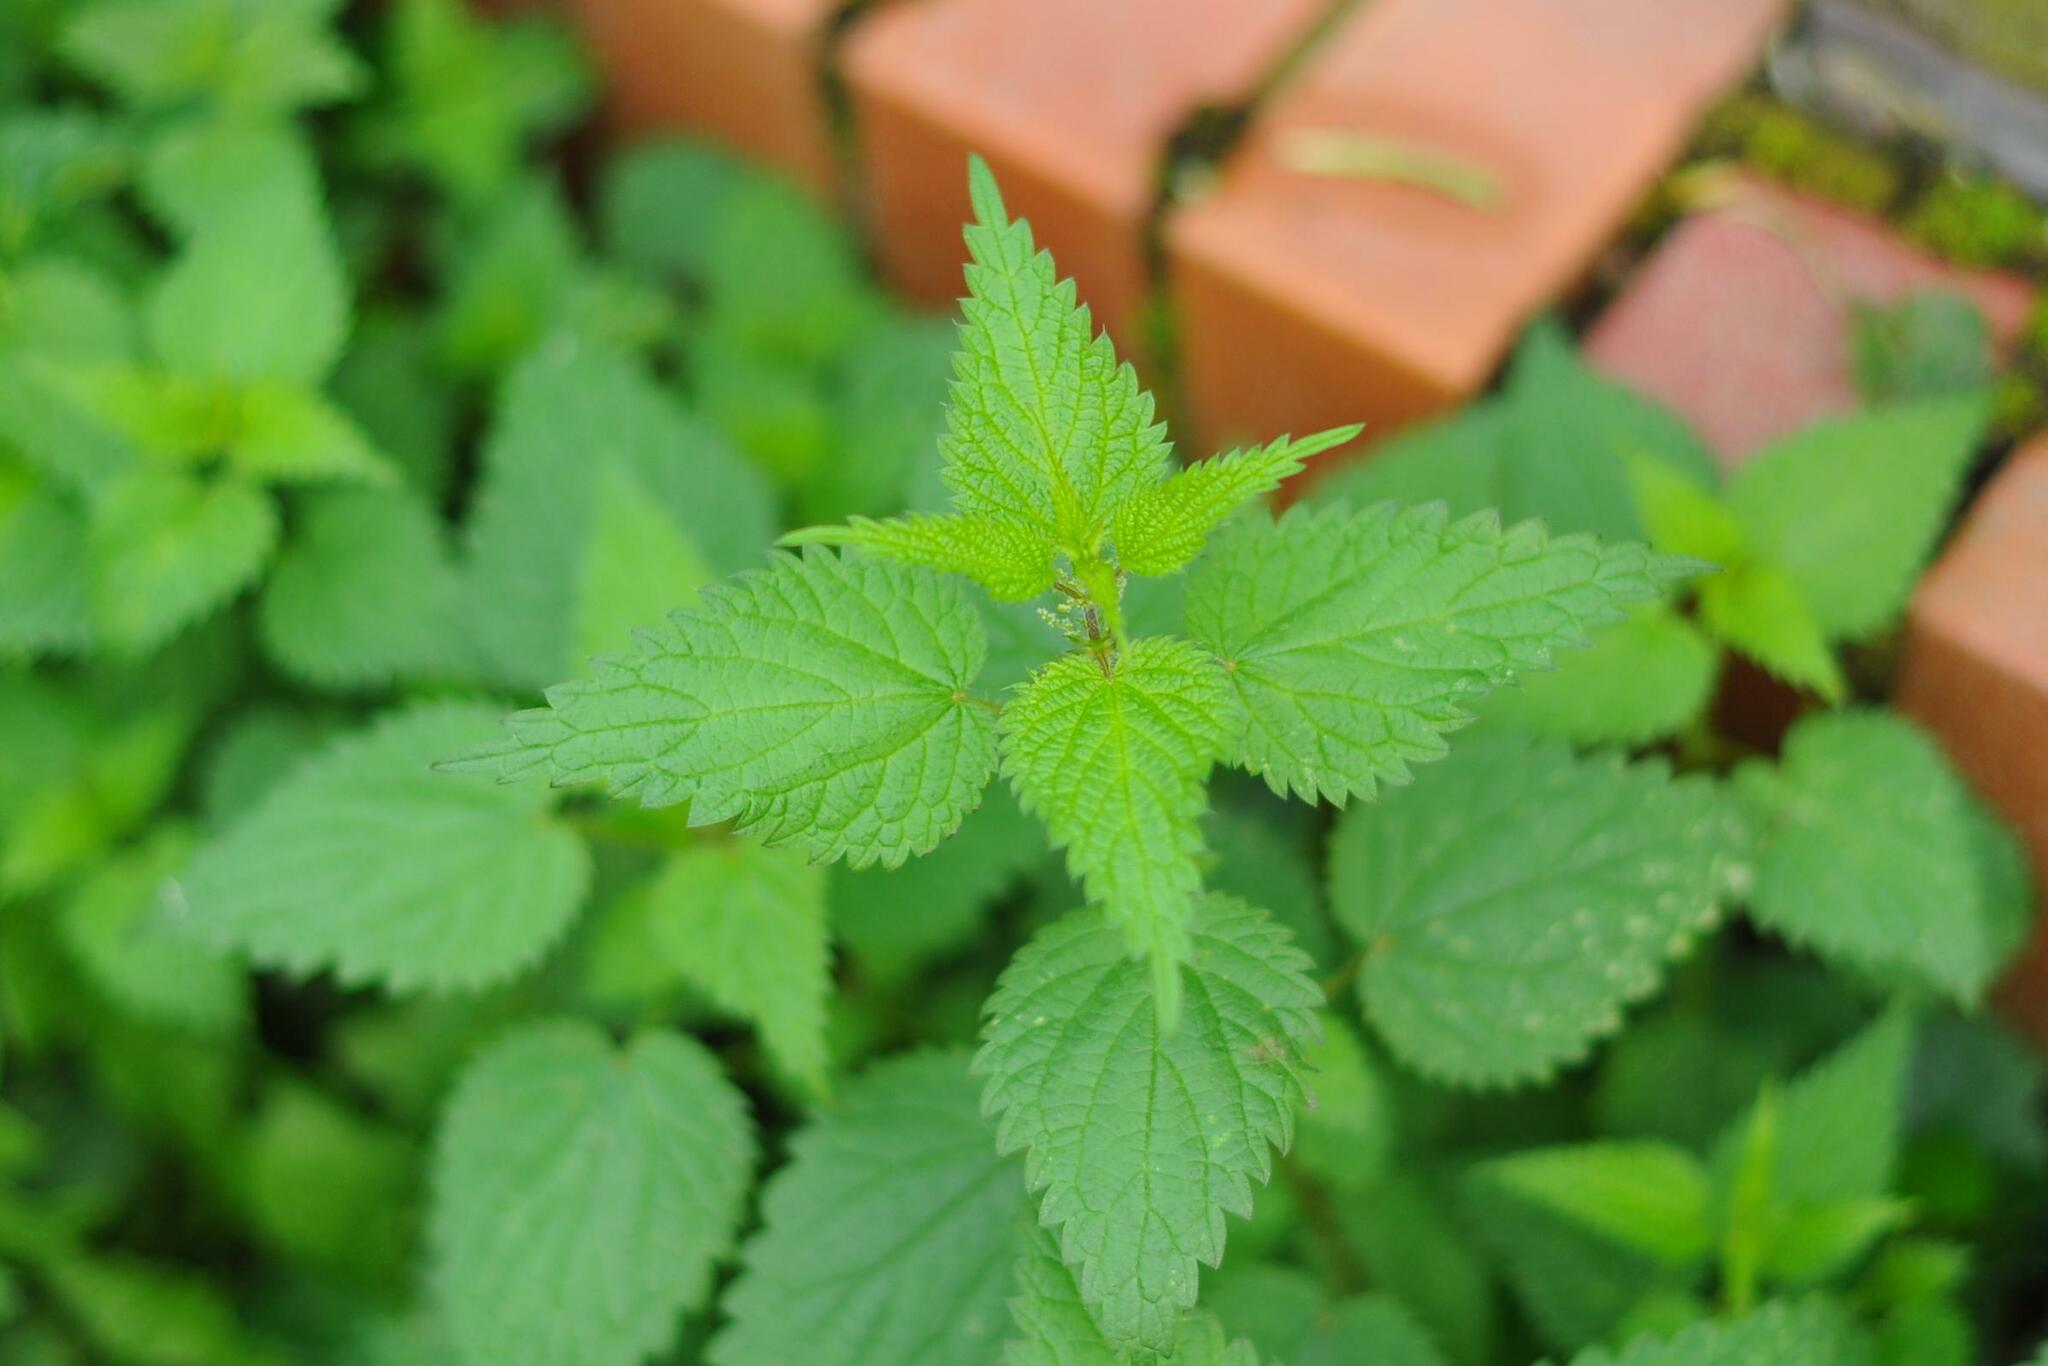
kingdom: Plantae
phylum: Tracheophyta
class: Magnoliopsida
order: Rosales
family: Urticaceae
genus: Urtica
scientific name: Urtica dioica
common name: Common nettle
